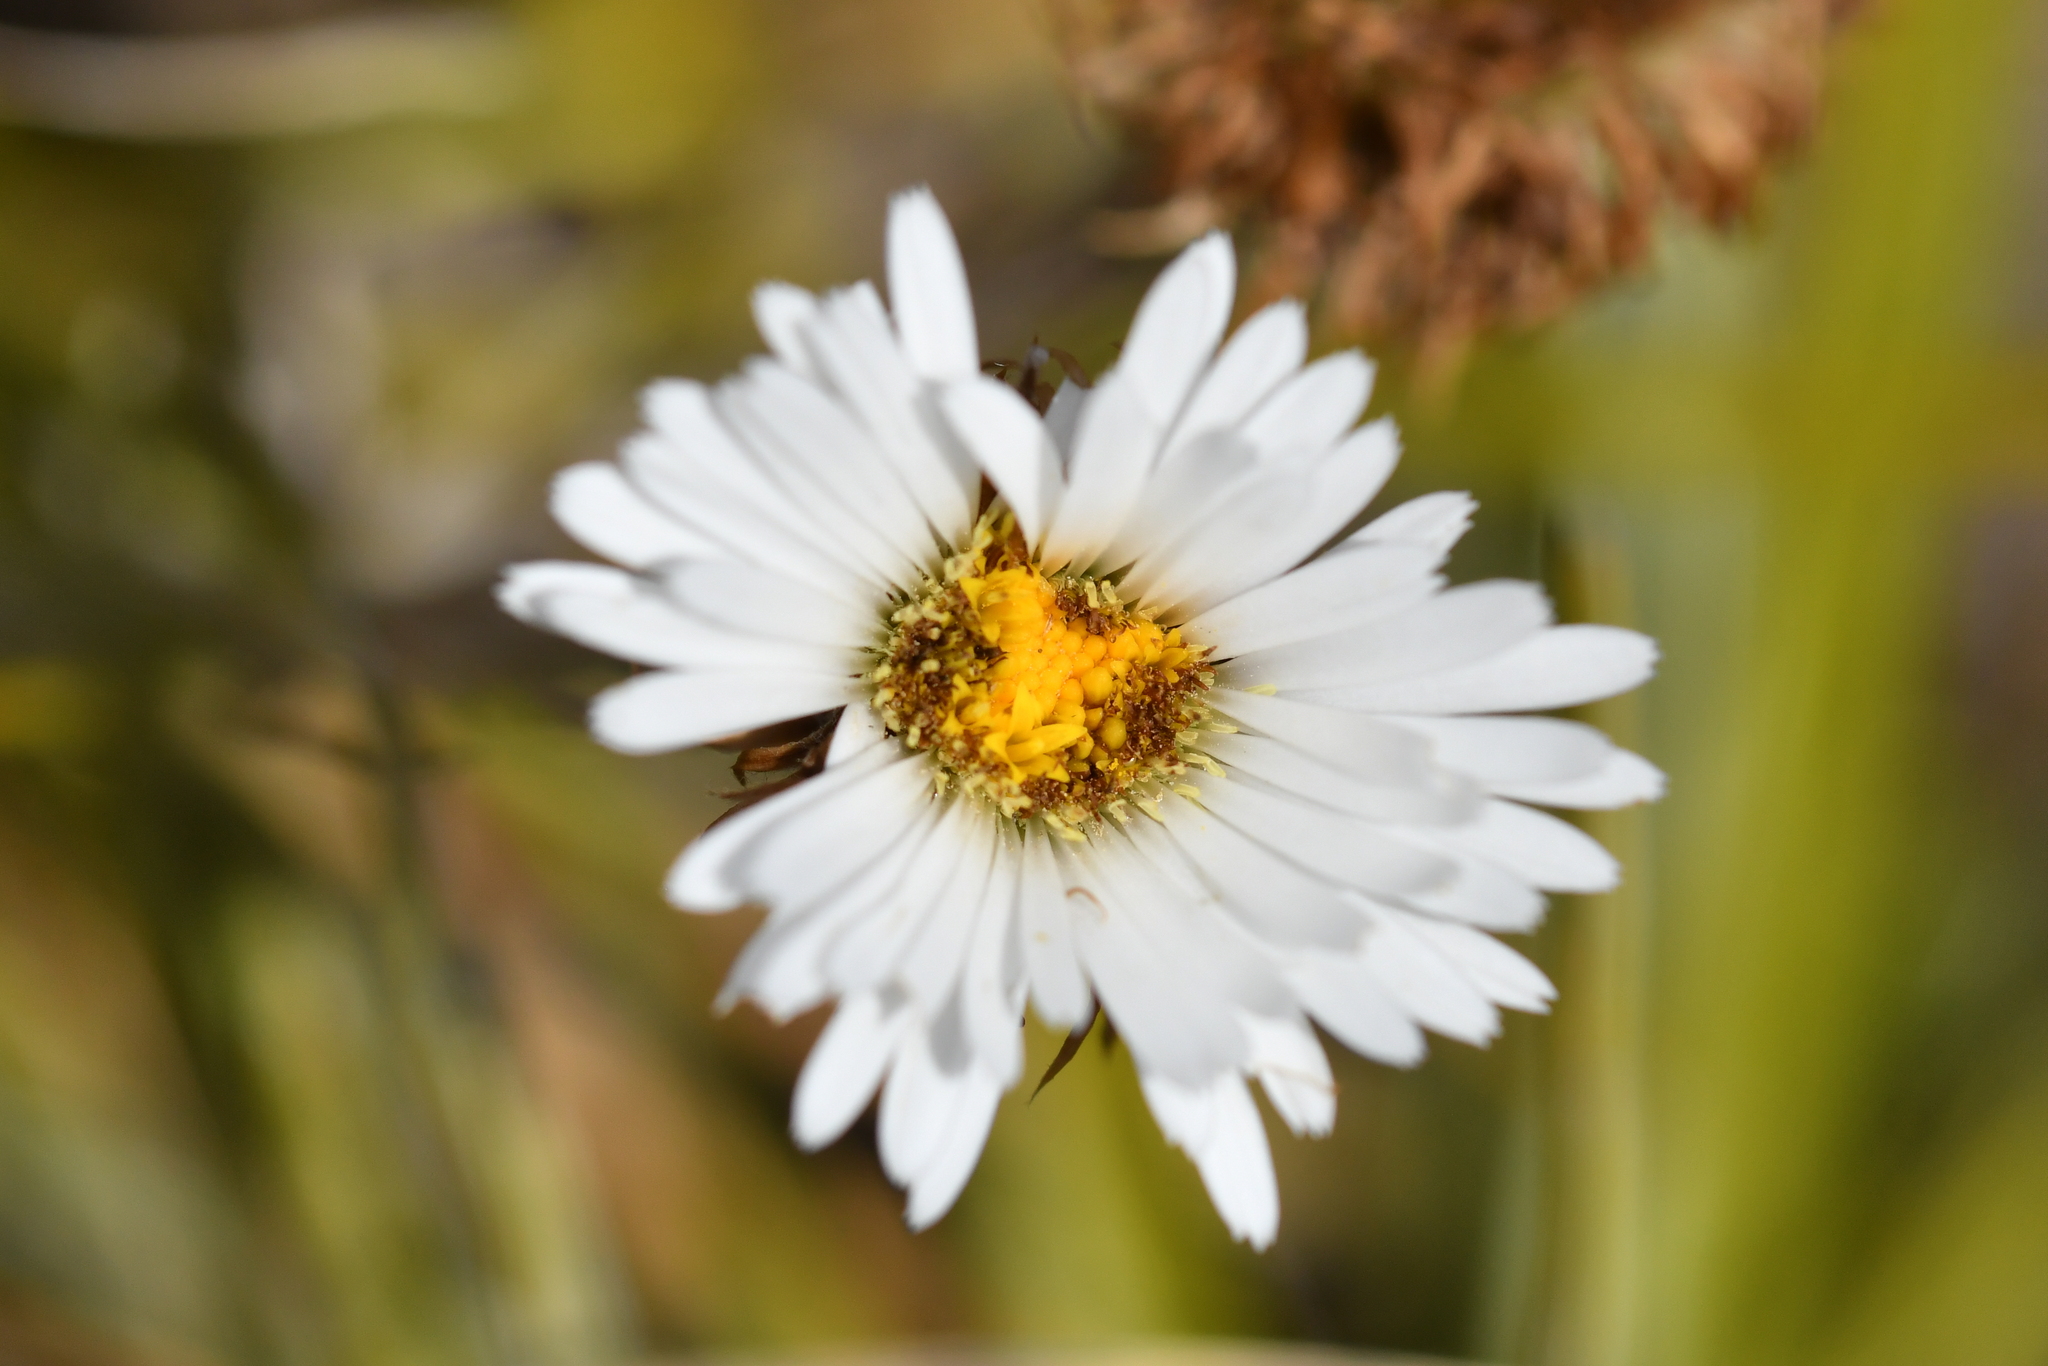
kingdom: Plantae
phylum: Tracheophyta
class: Magnoliopsida
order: Asterales
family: Asteraceae
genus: Celmisia
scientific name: Celmisia lyallii
